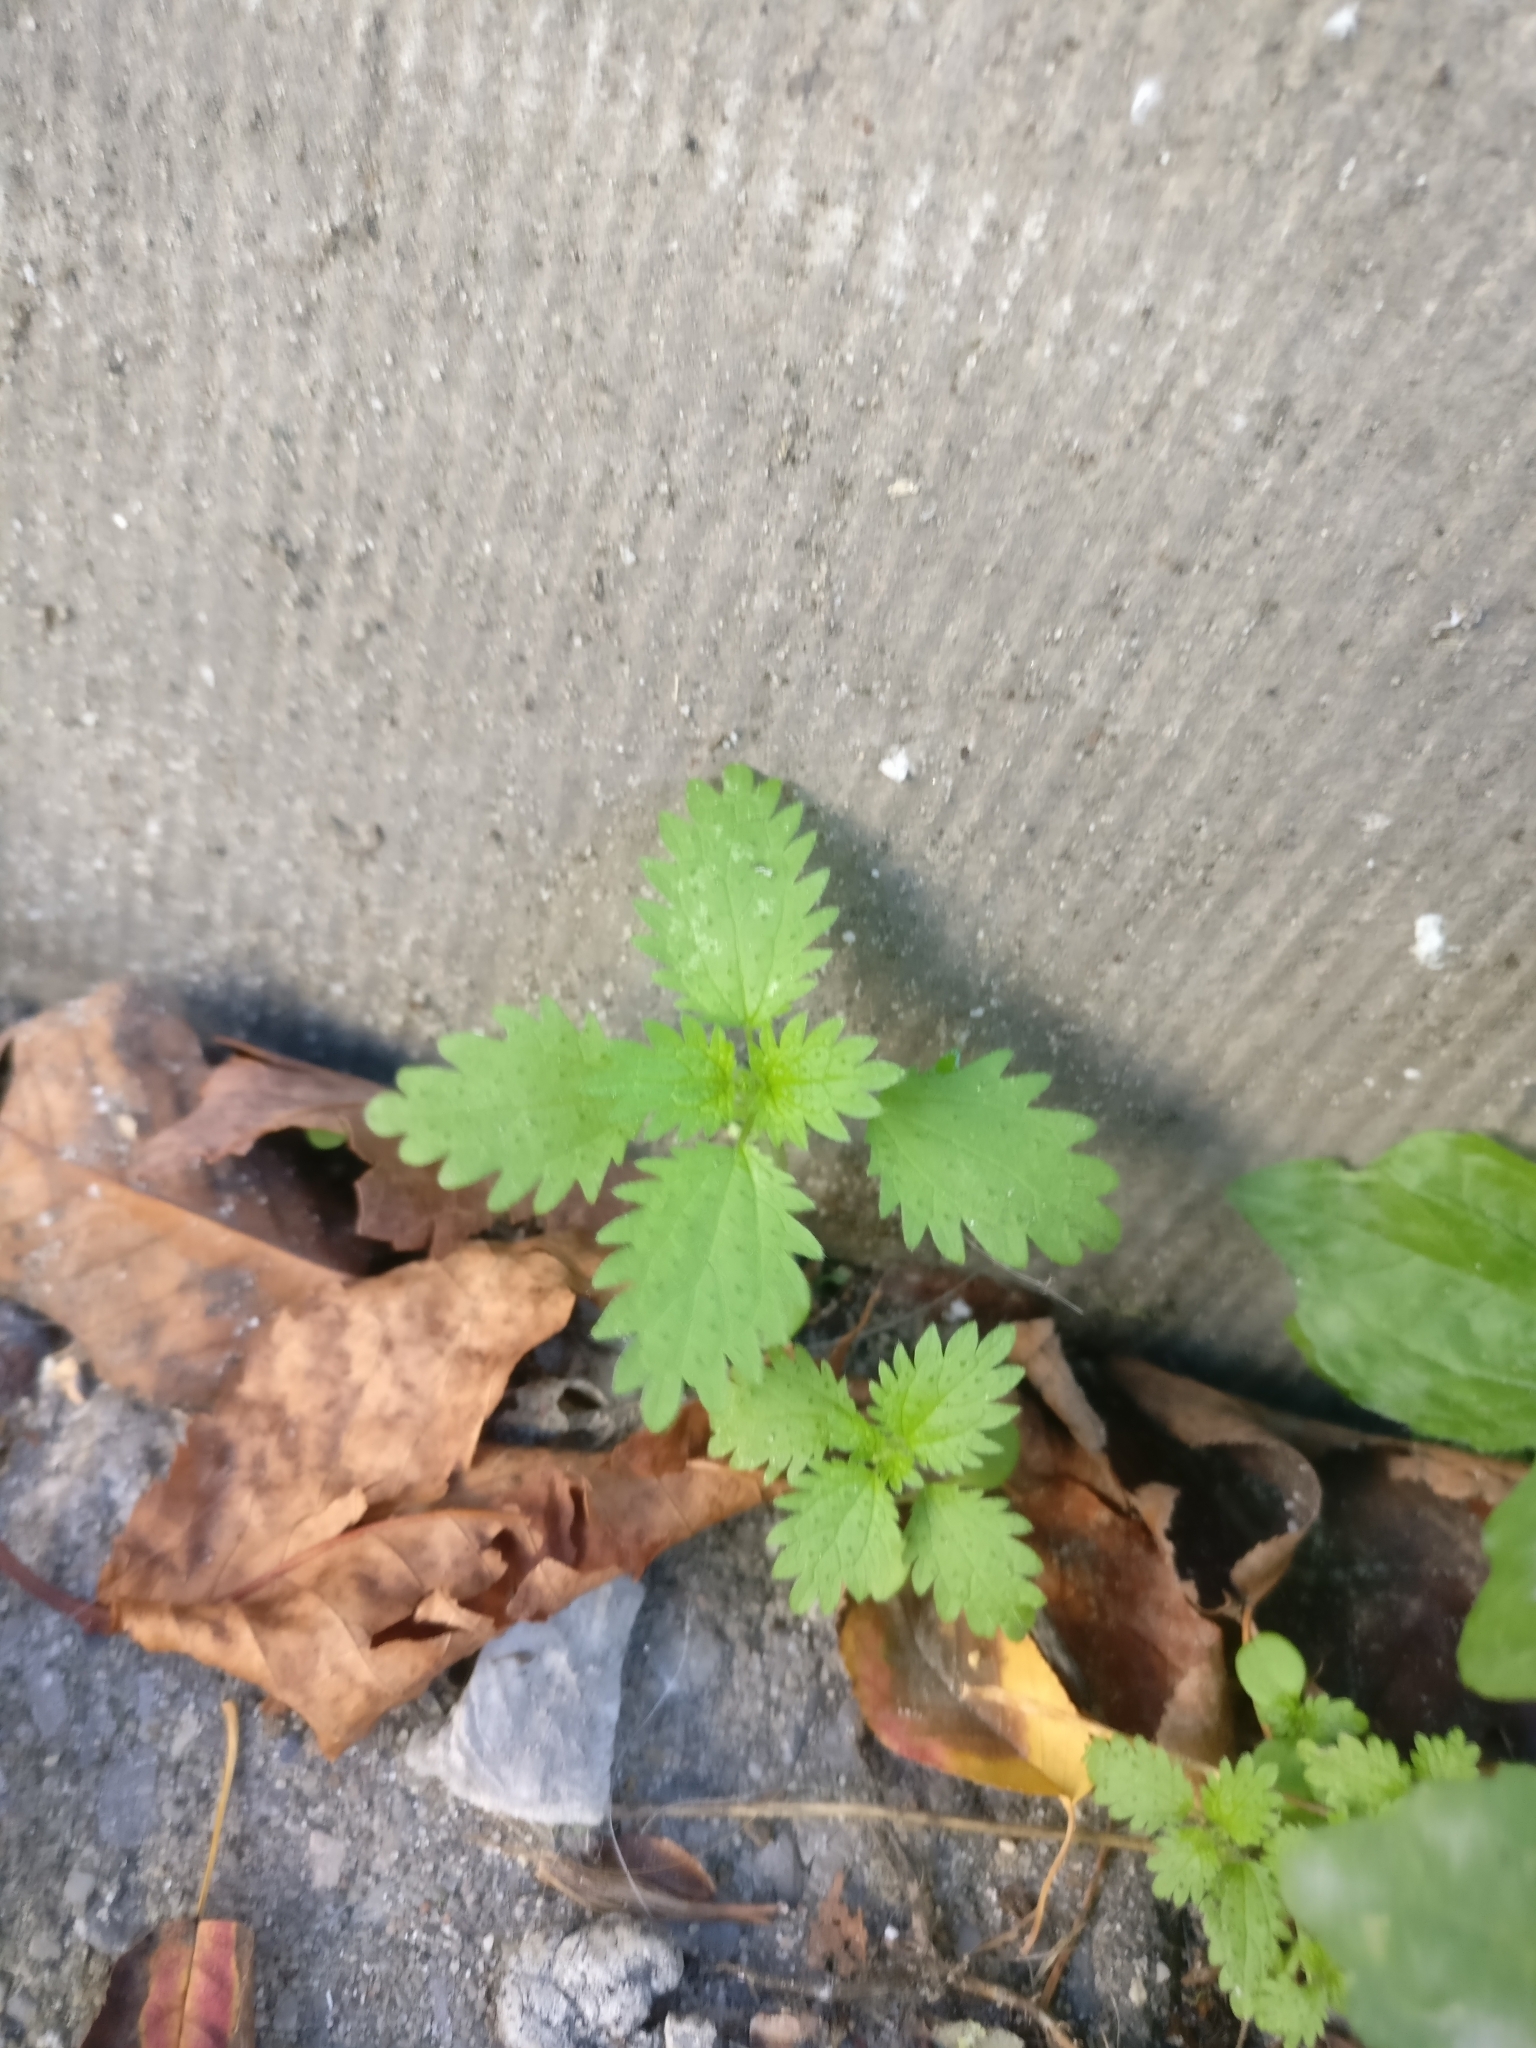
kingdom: Plantae
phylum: Tracheophyta
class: Magnoliopsida
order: Rosales
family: Urticaceae
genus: Urtica
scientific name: Urtica urens
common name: Dwarf nettle
